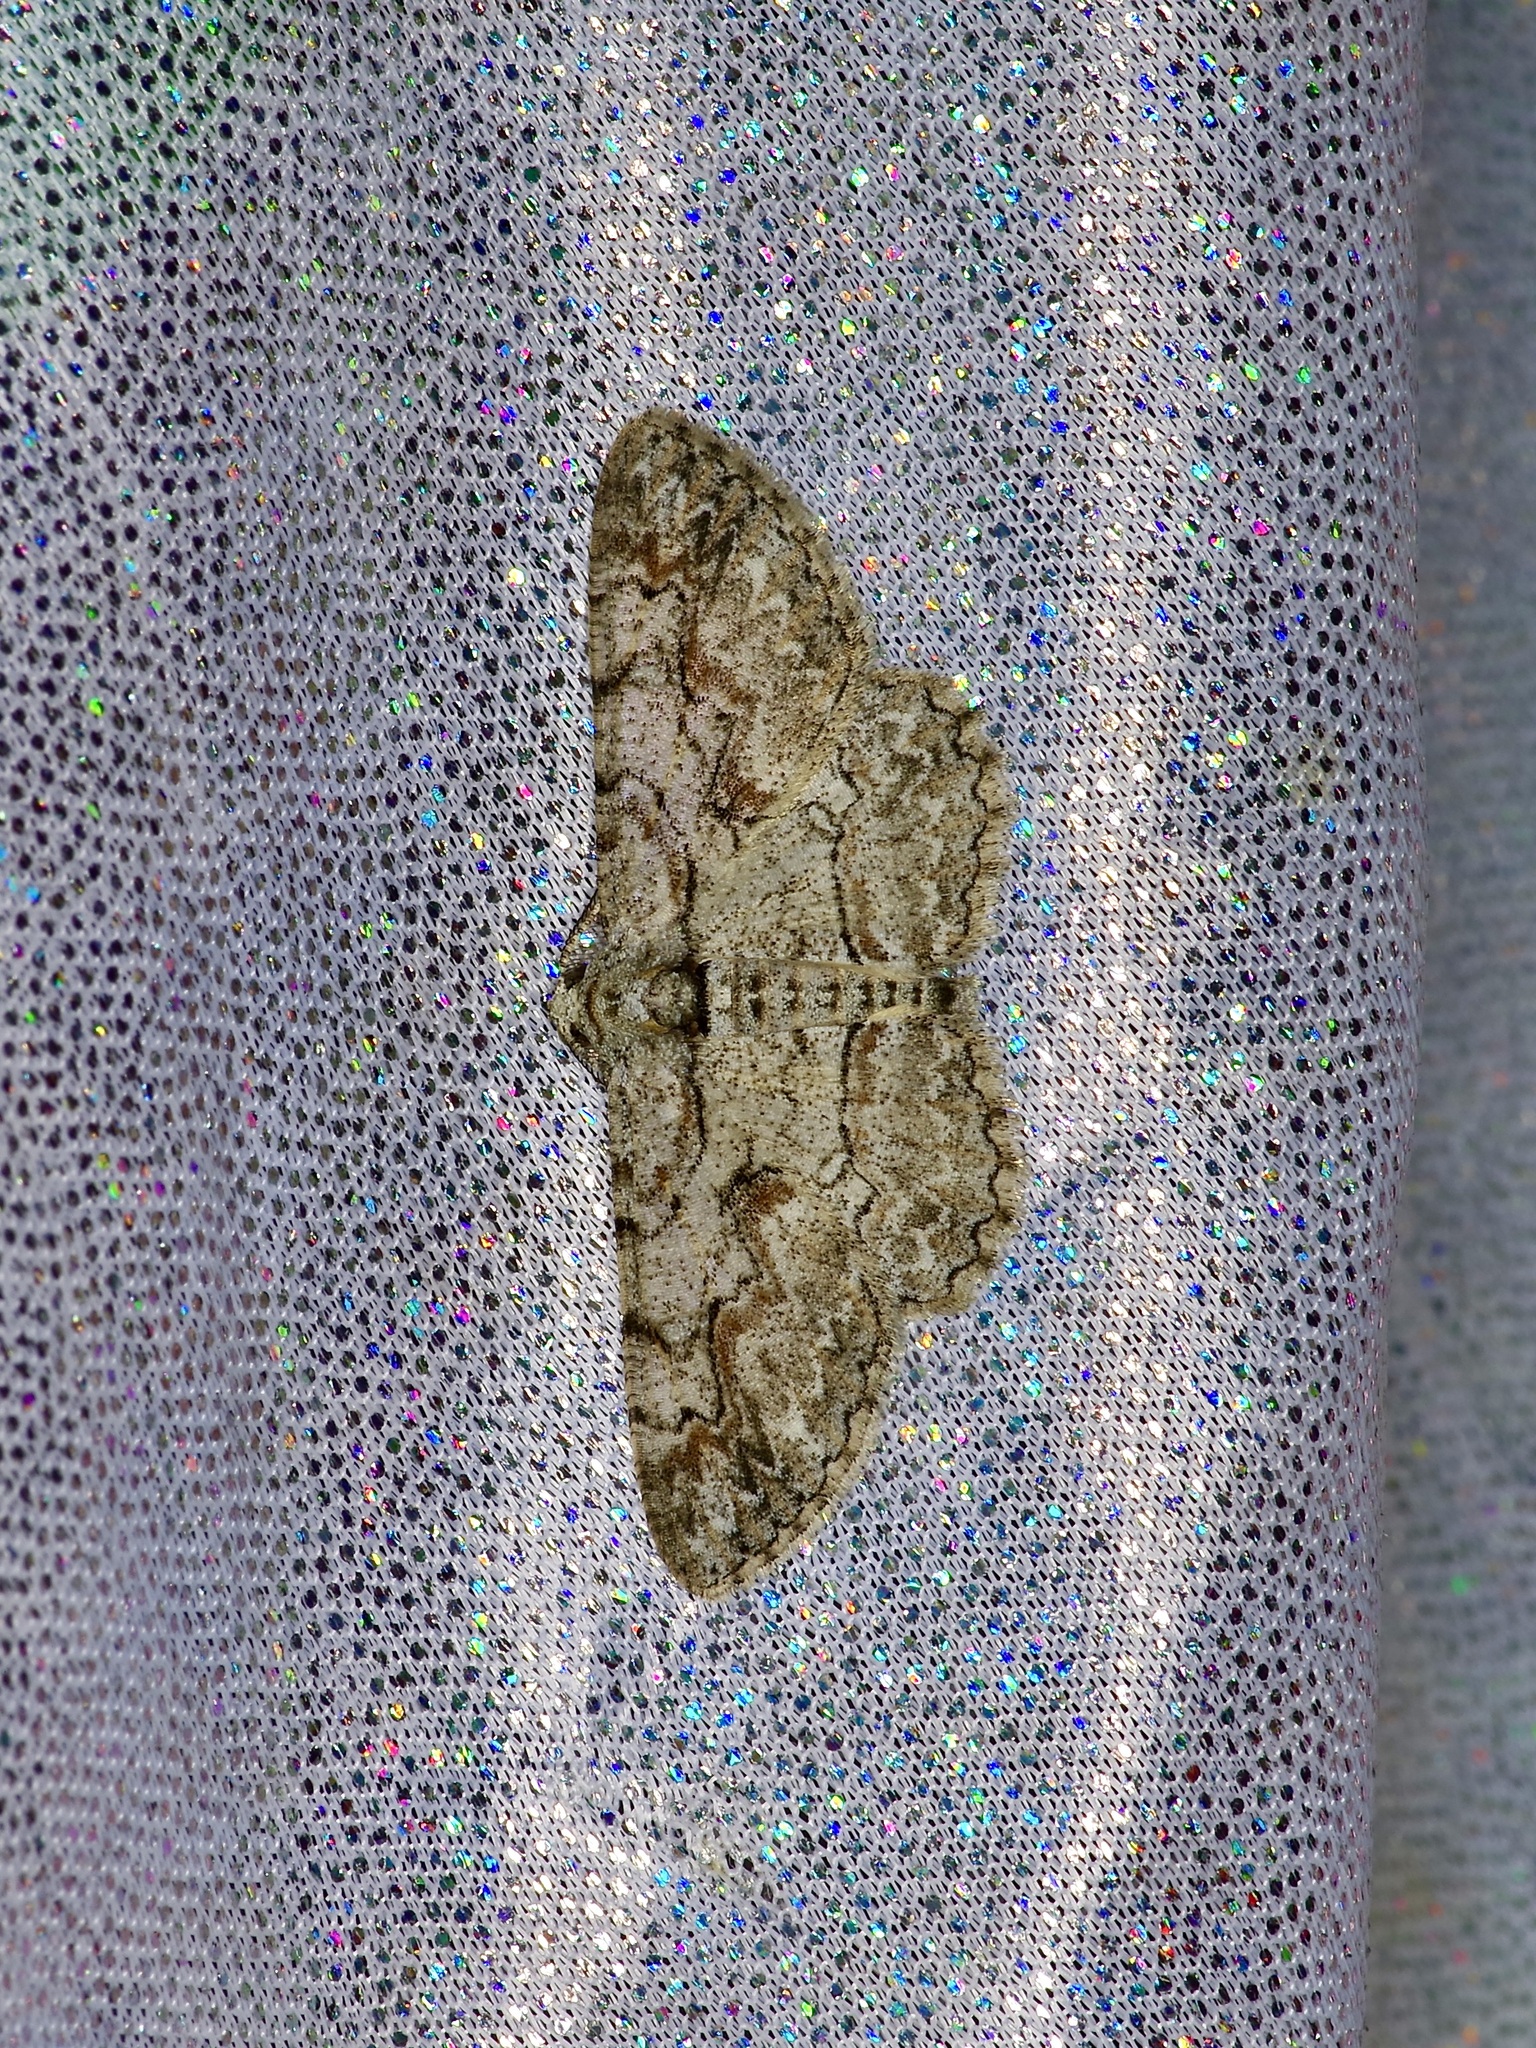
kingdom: Animalia
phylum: Arthropoda
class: Insecta
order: Lepidoptera
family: Geometridae
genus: Iridopsis
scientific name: Iridopsis defectaria
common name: Brown-shaded gray
